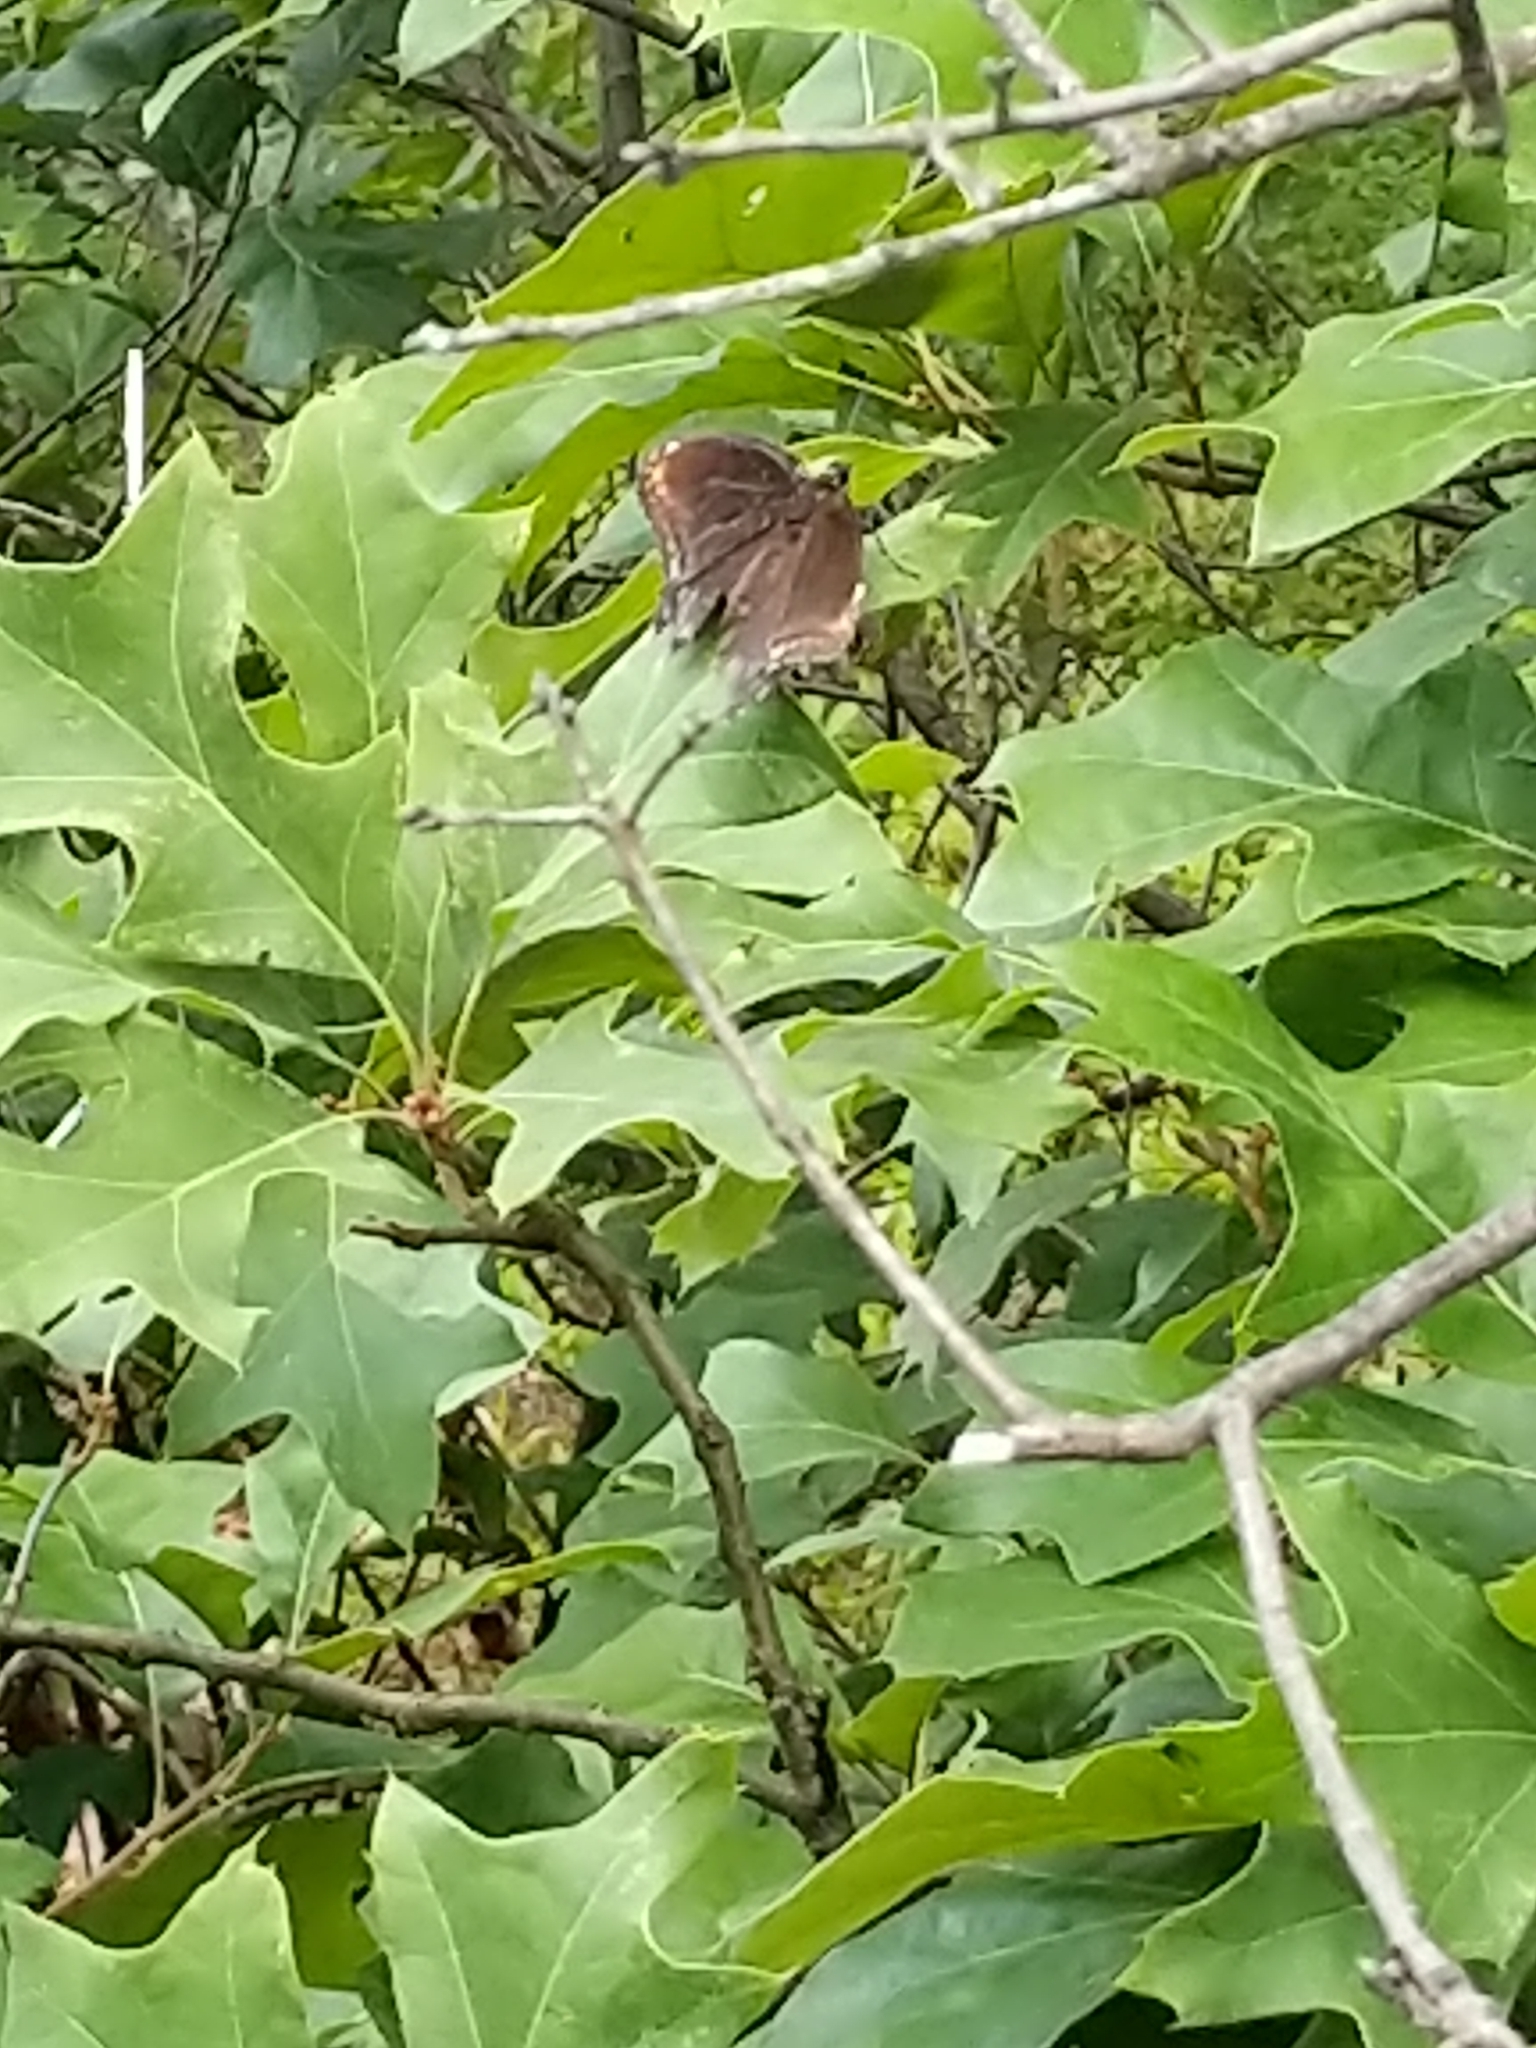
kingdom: Animalia
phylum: Arthropoda
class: Insecta
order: Lepidoptera
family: Nymphalidae
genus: Limenitis
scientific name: Limenitis astyanax
